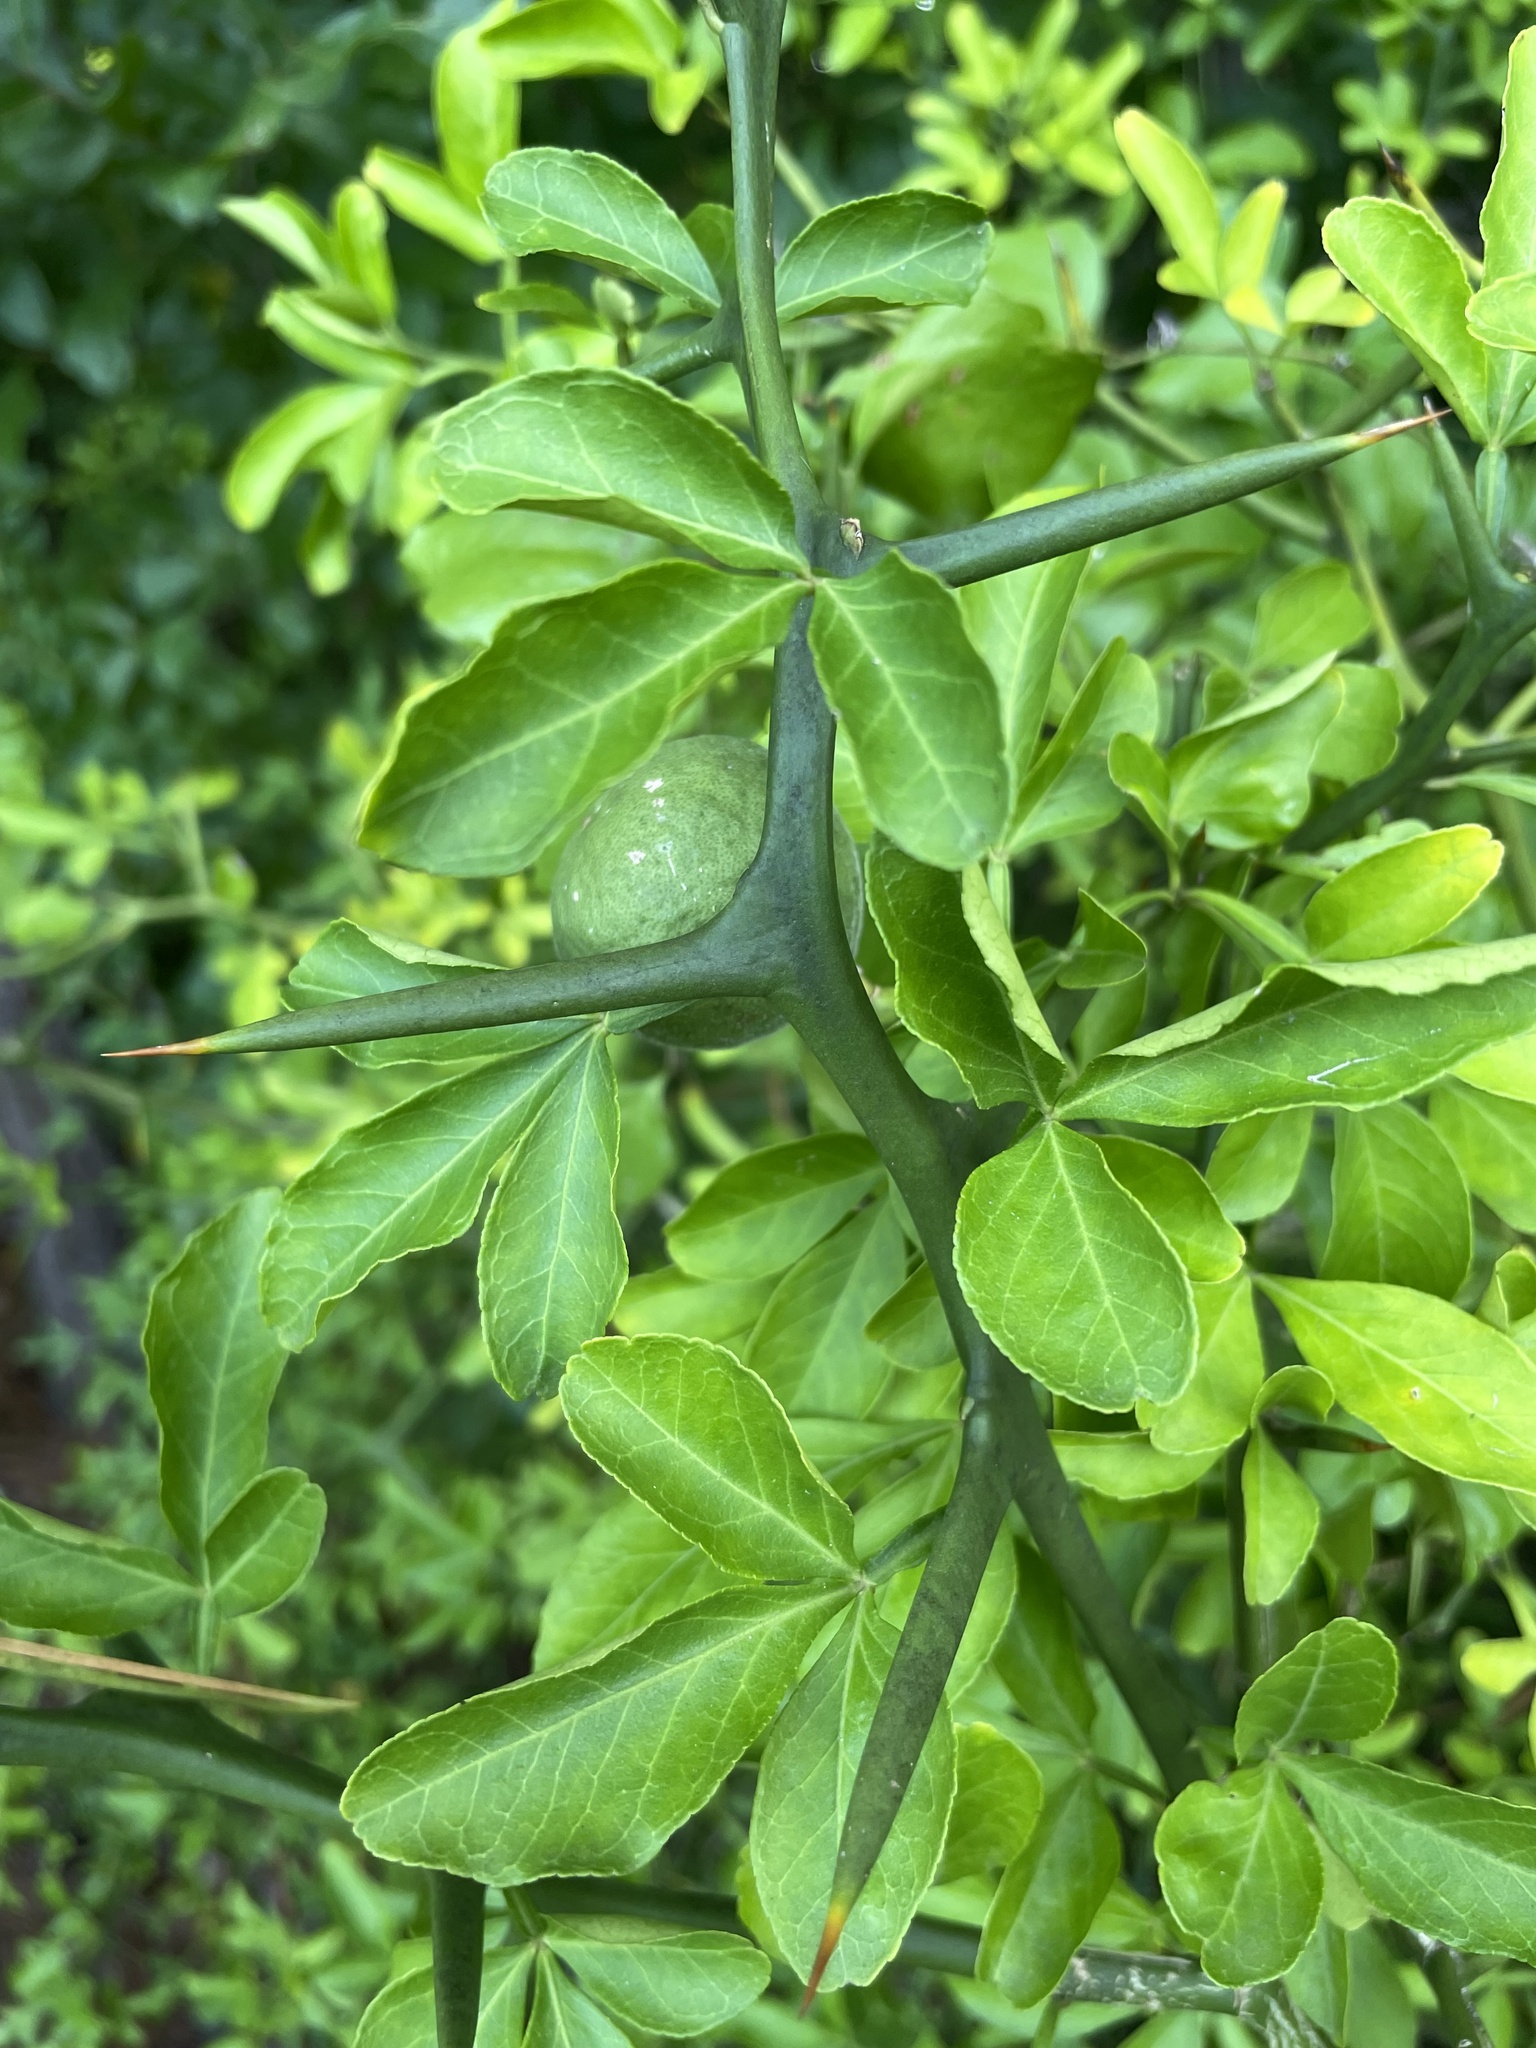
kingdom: Plantae
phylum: Tracheophyta
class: Magnoliopsida
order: Sapindales
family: Rutaceae
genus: Citrus
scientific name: Citrus trifoliata
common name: Japanese bitter-orange
